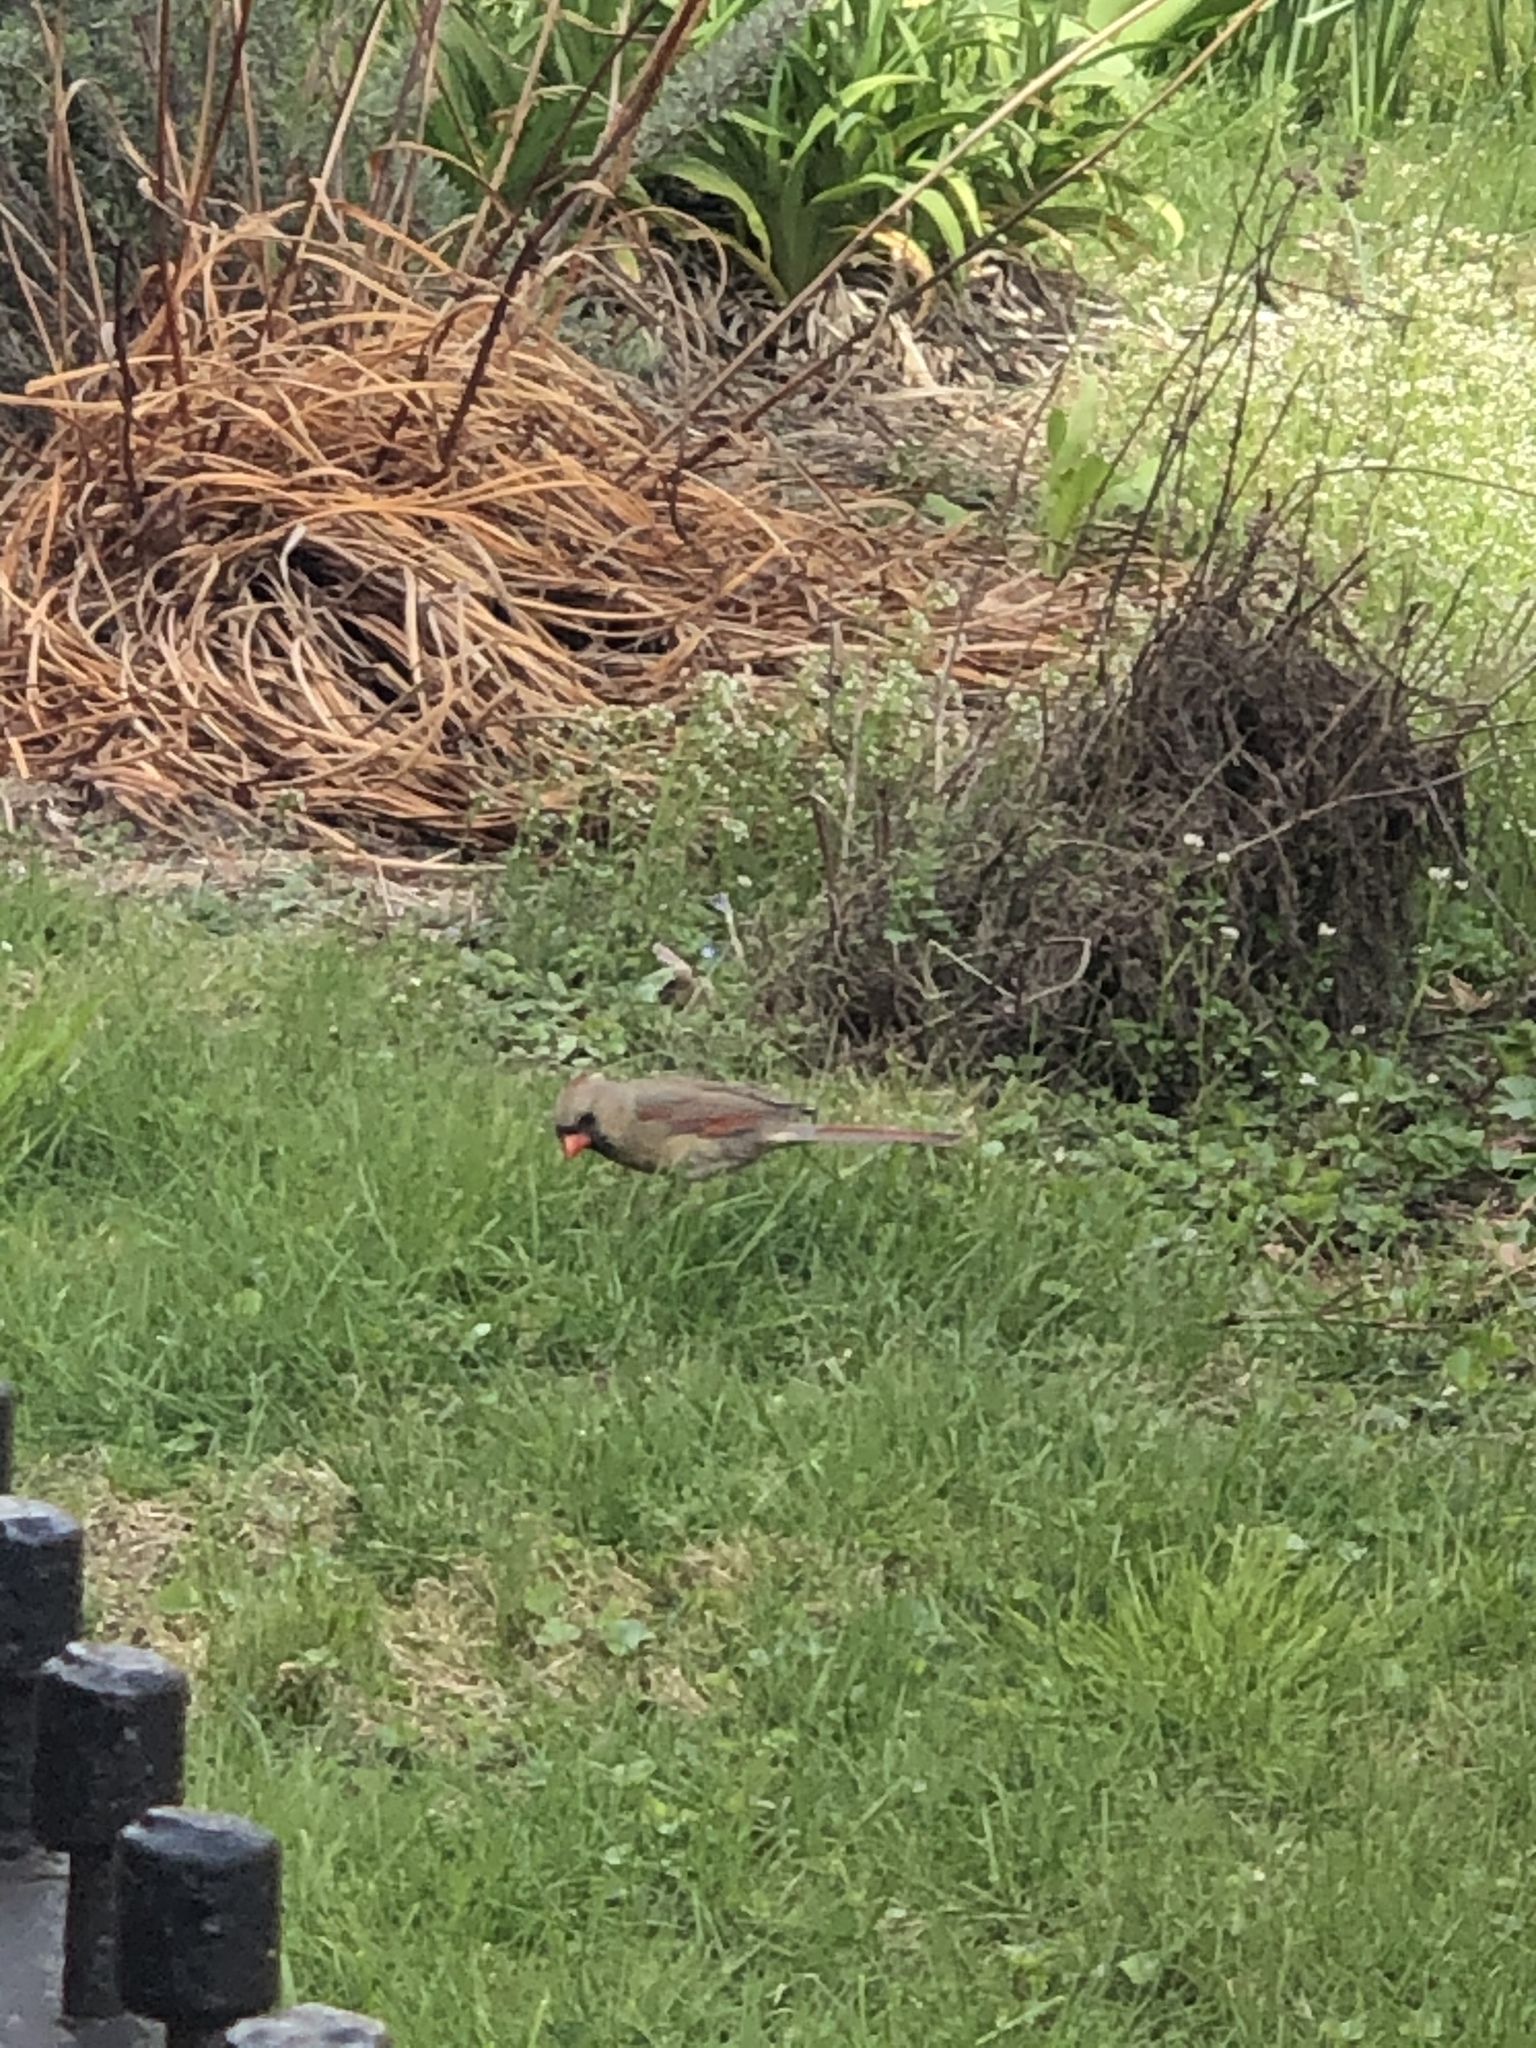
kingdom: Animalia
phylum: Chordata
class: Aves
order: Passeriformes
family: Cardinalidae
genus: Cardinalis
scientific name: Cardinalis cardinalis
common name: Northern cardinal
